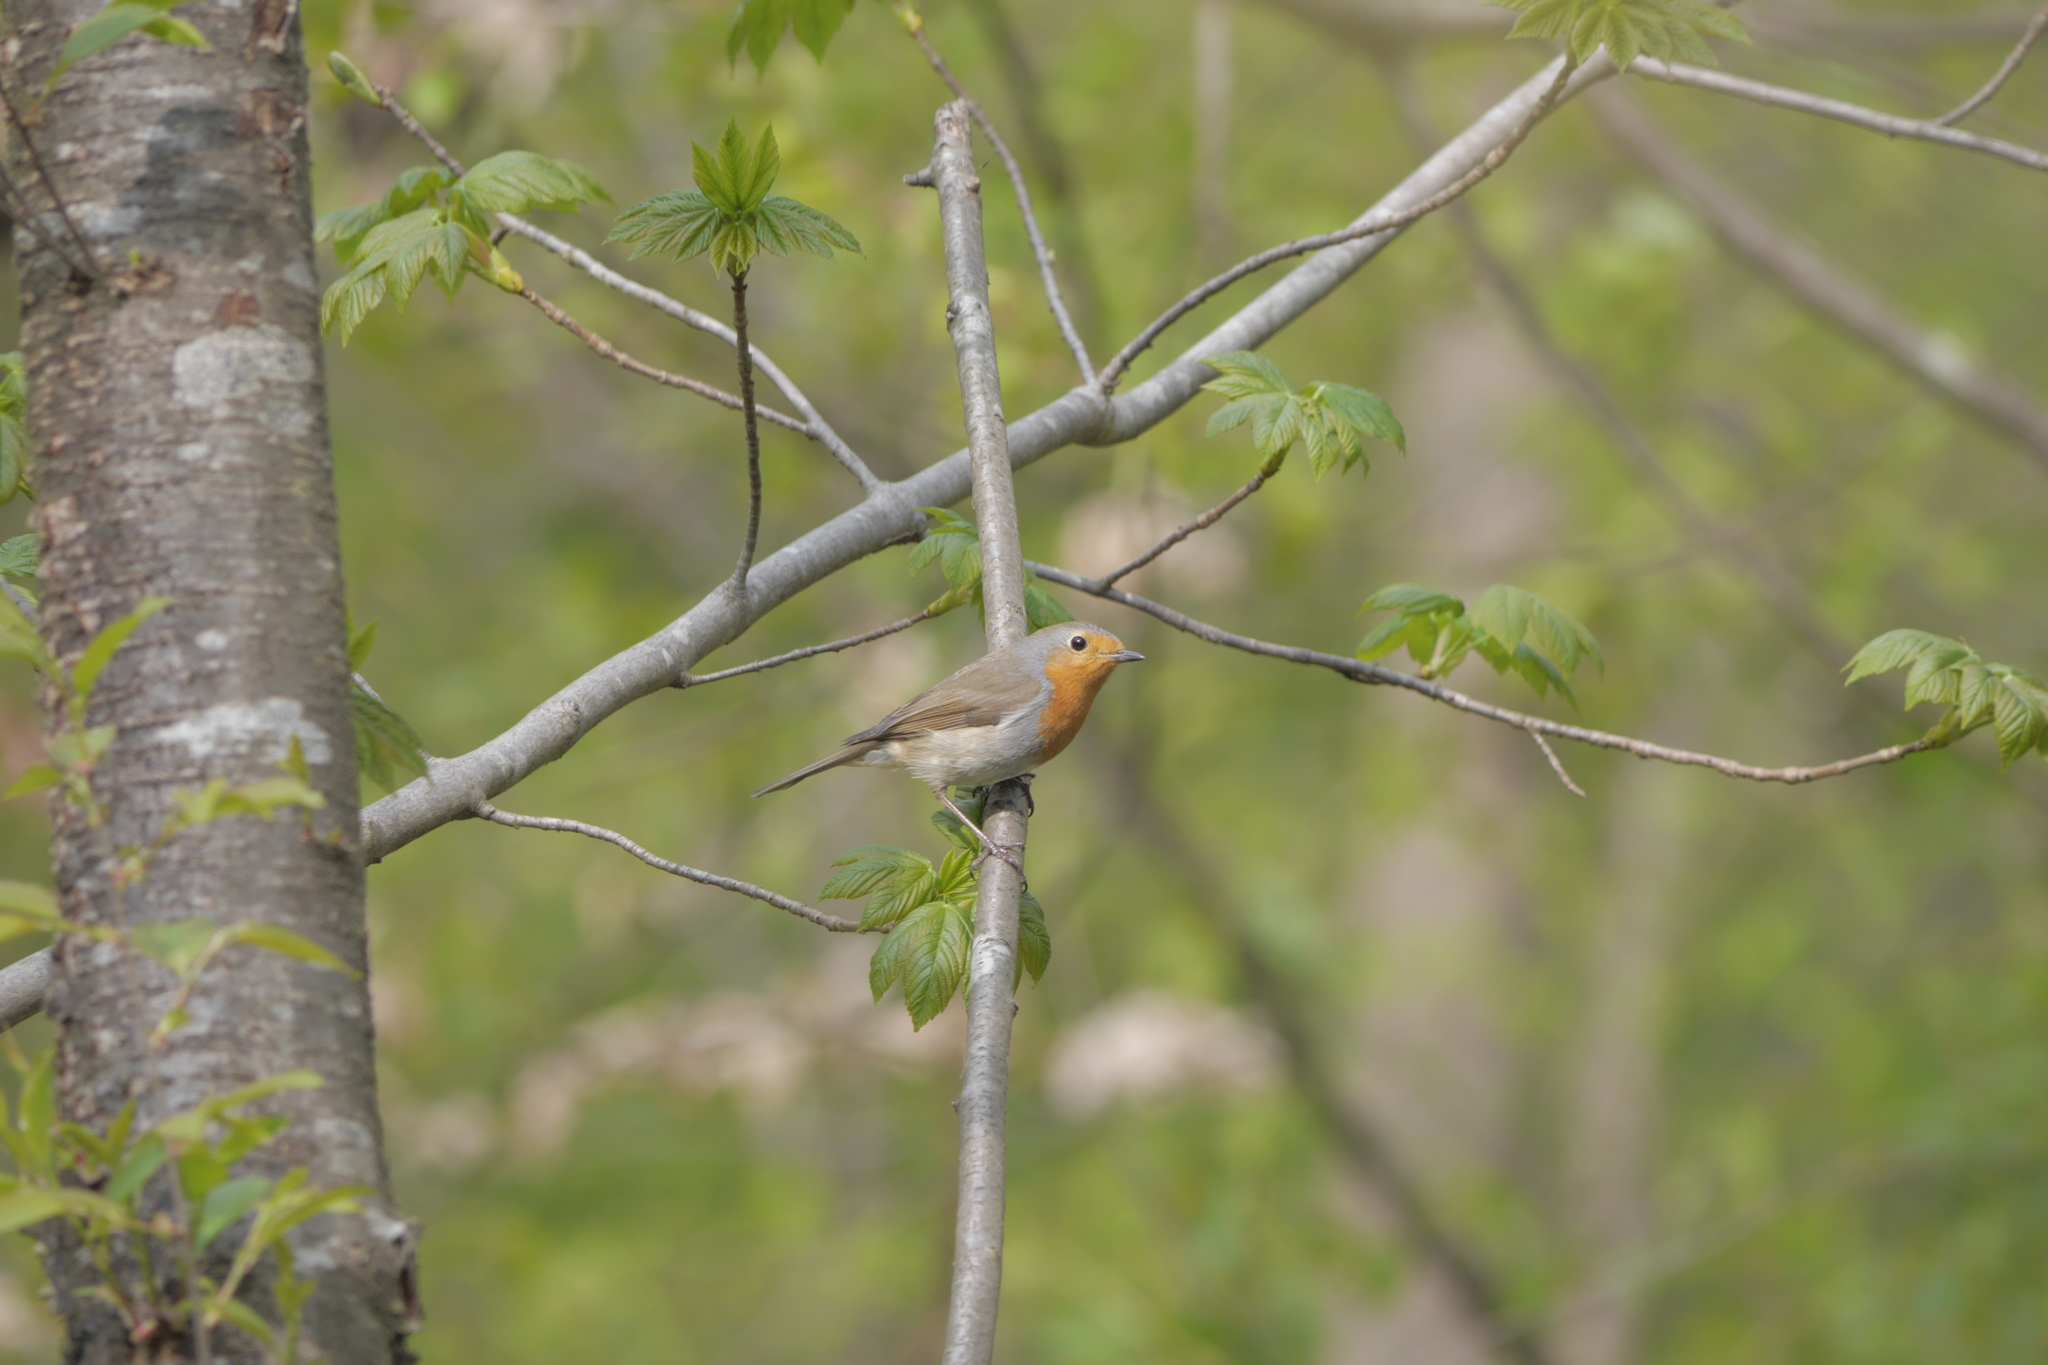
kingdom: Animalia
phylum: Chordata
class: Aves
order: Passeriformes
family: Muscicapidae
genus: Erithacus
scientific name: Erithacus rubecula
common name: European robin
